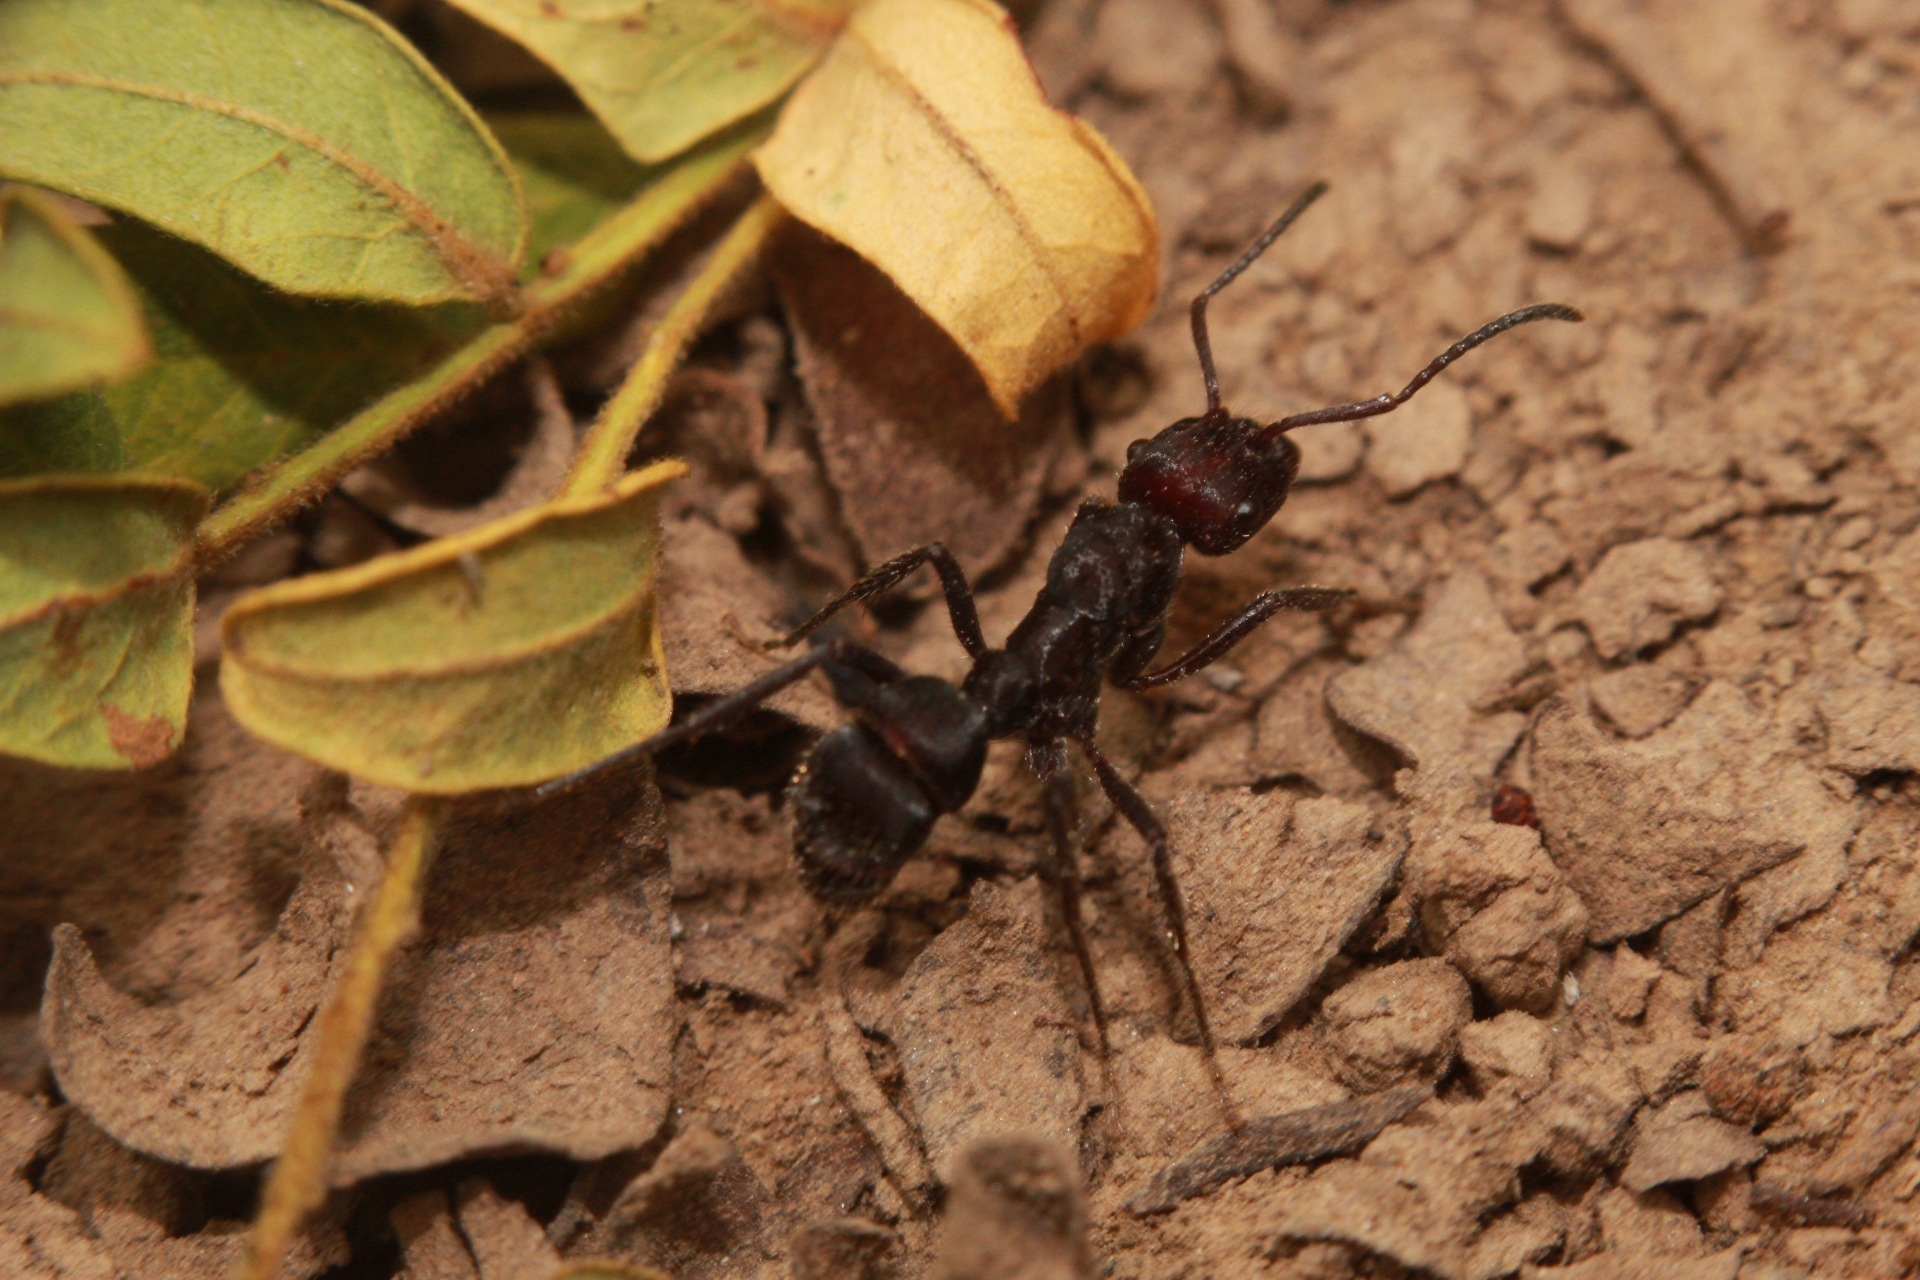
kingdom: Animalia
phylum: Arthropoda
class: Insecta
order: Hymenoptera
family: Formicidae
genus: Ectatomma
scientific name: Ectatomma brunneum
